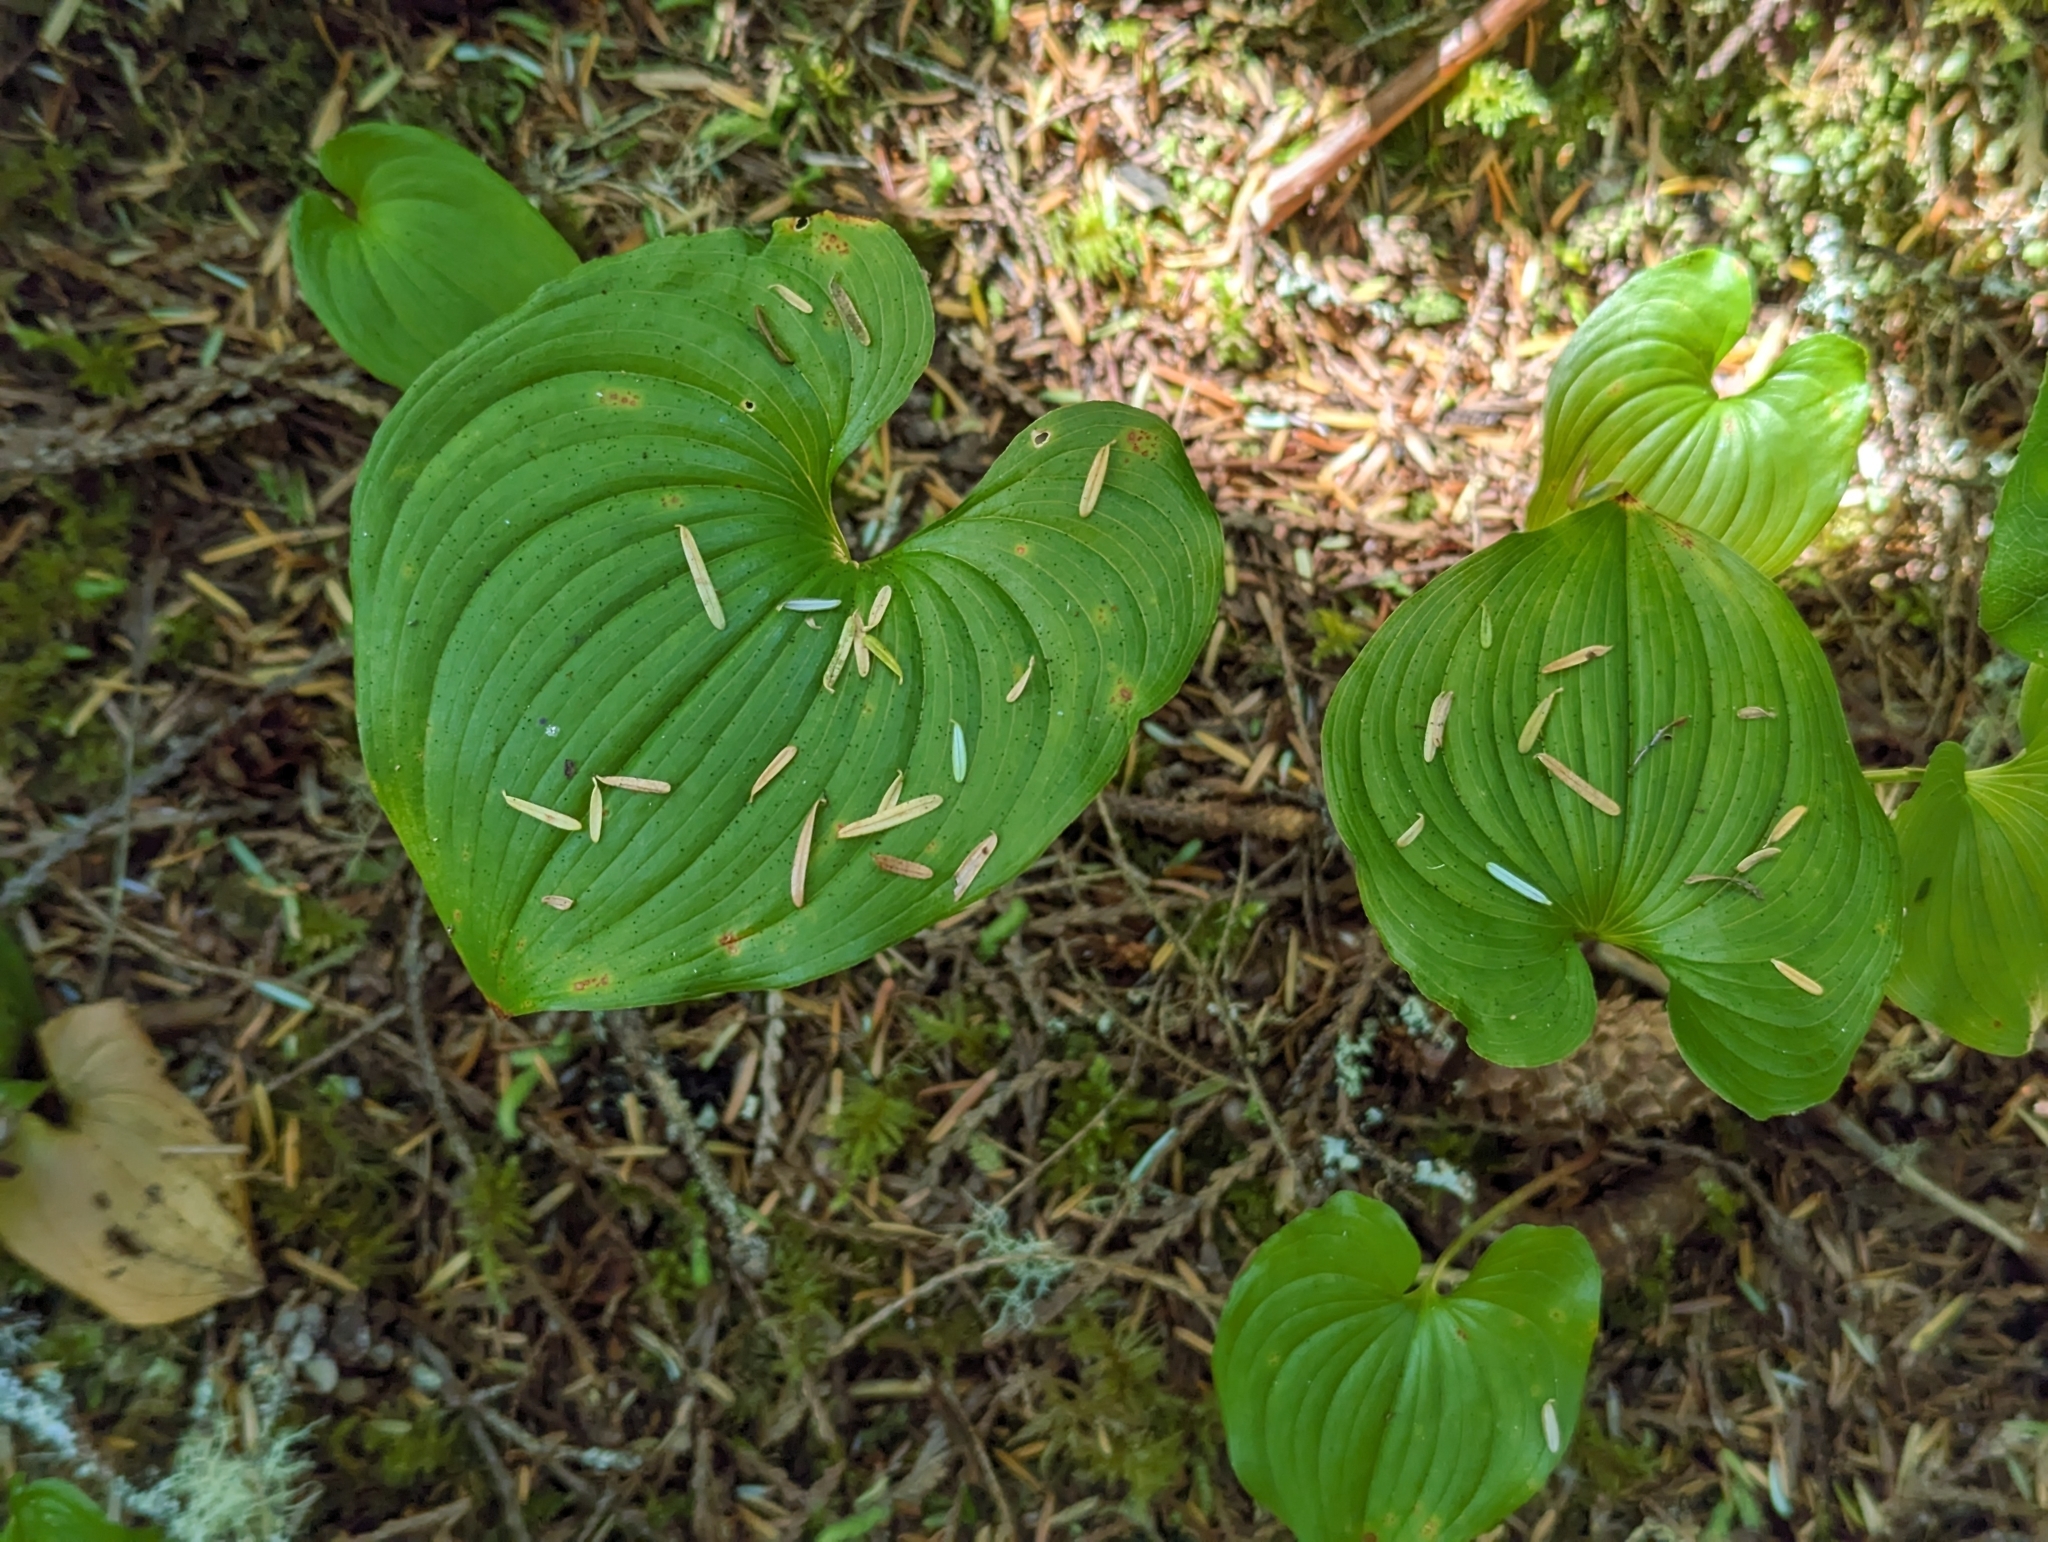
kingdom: Plantae
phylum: Tracheophyta
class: Liliopsida
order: Asparagales
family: Asparagaceae
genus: Maianthemum
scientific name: Maianthemum dilatatum
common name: False lily-of-the-valley
